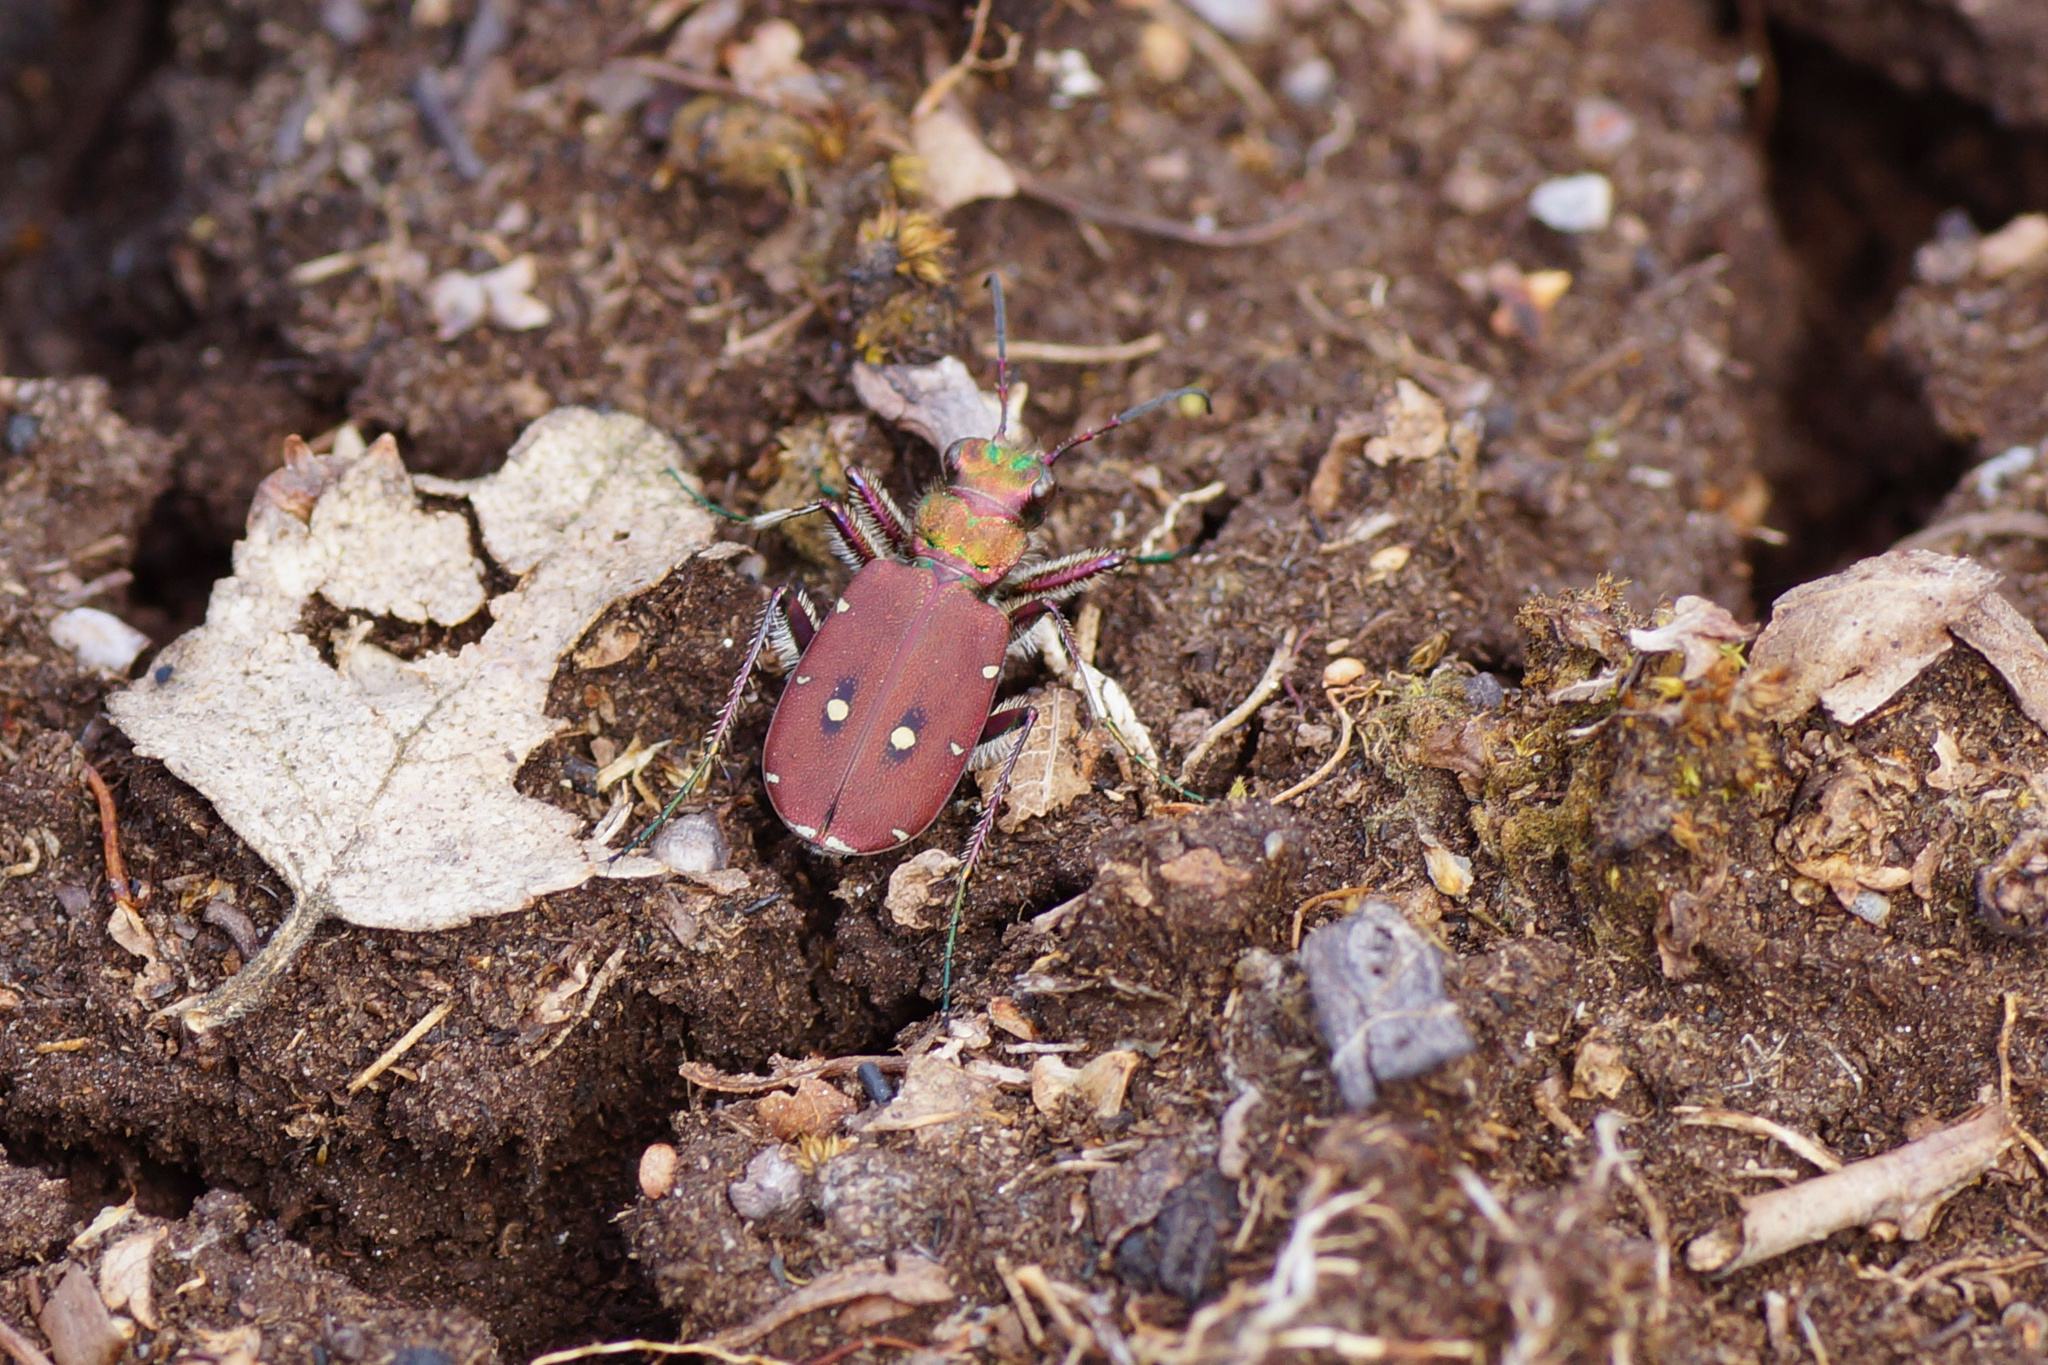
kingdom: Animalia
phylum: Arthropoda
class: Insecta
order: Coleoptera
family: Carabidae
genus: Cicindela
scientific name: Cicindela campestris
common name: Common tiger beetle
